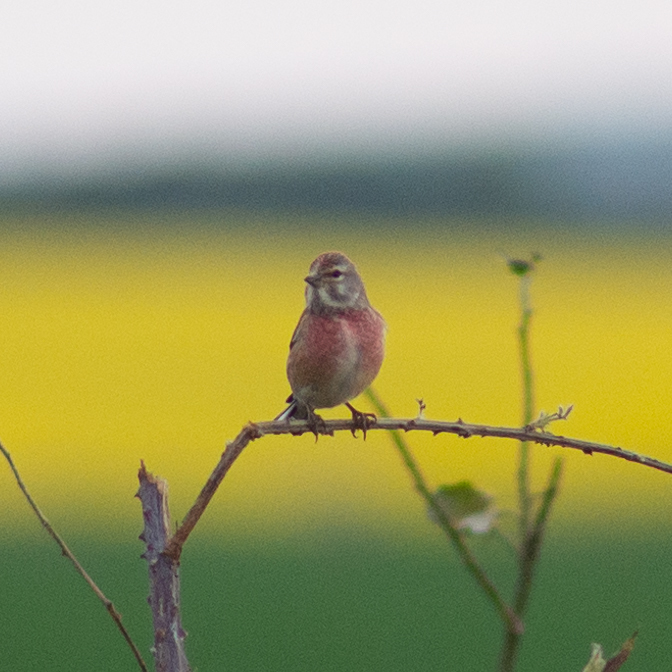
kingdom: Animalia
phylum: Chordata
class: Aves
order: Passeriformes
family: Fringillidae
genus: Linaria
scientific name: Linaria cannabina
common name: Common linnet
